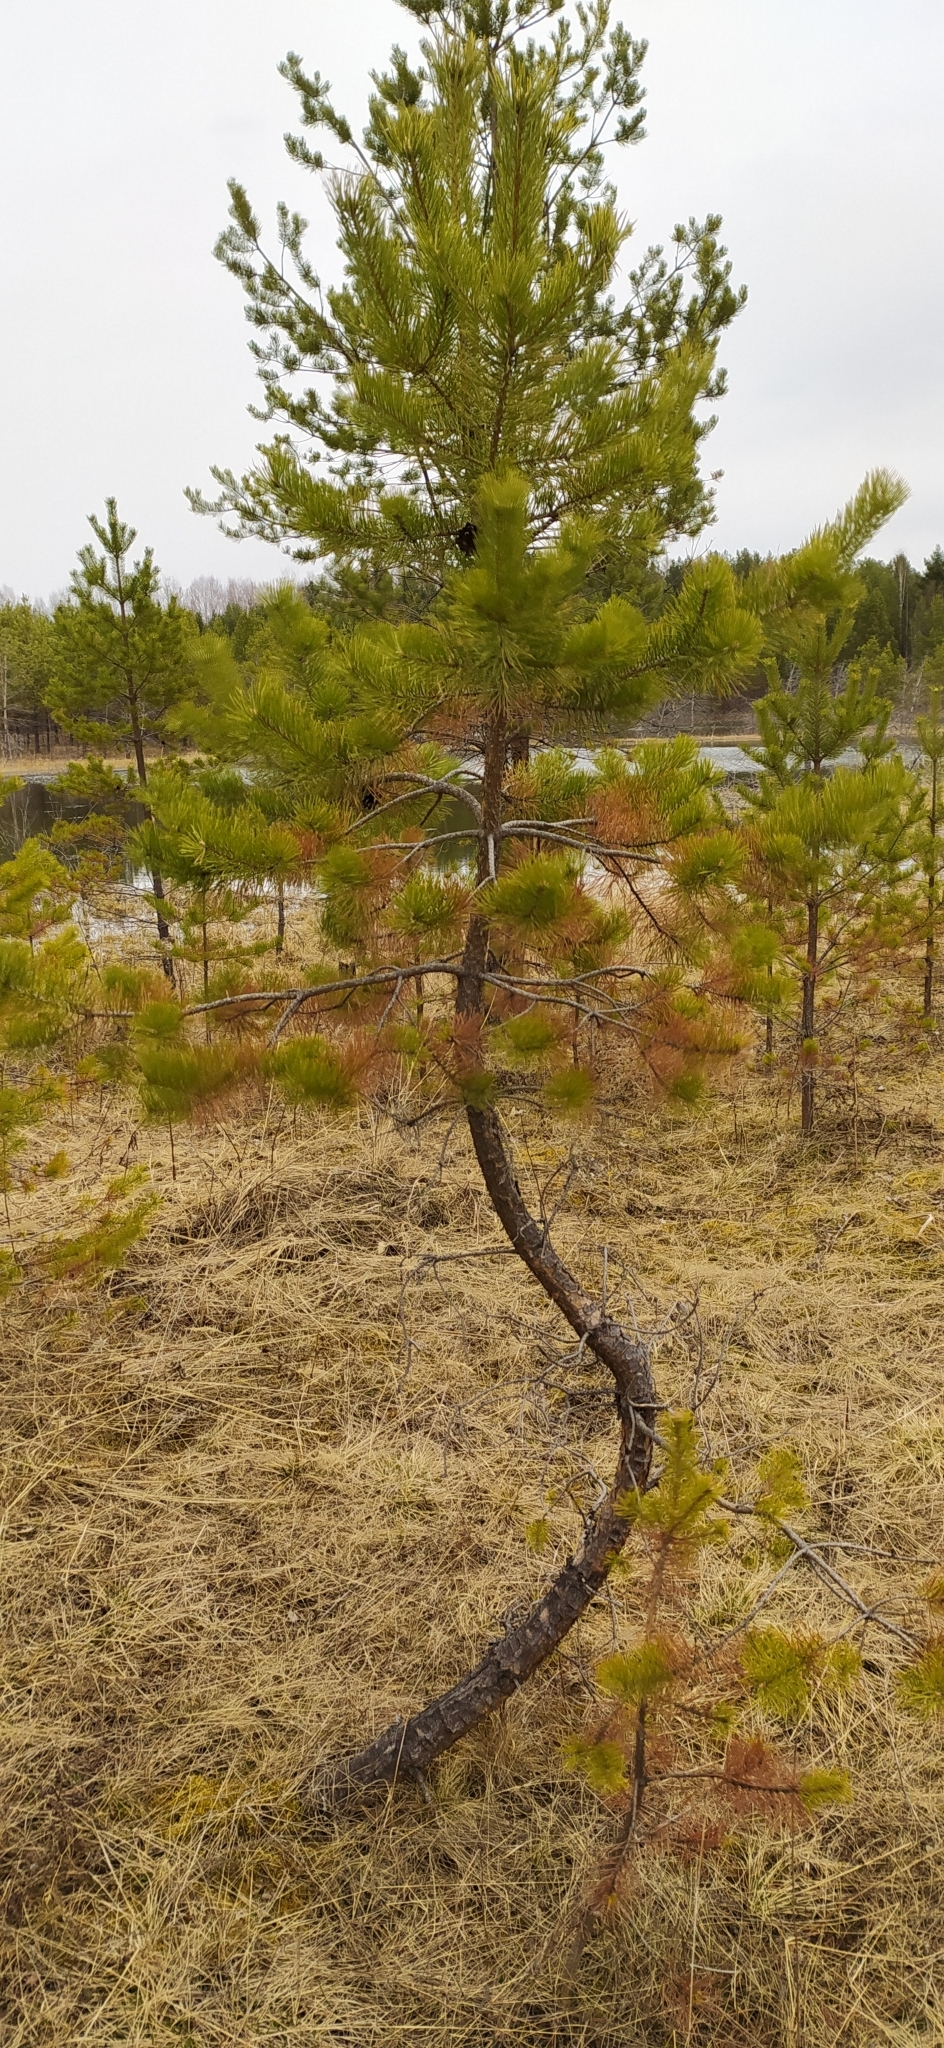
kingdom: Plantae
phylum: Tracheophyta
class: Pinopsida
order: Pinales
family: Pinaceae
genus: Pinus
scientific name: Pinus sylvestris
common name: Scots pine
